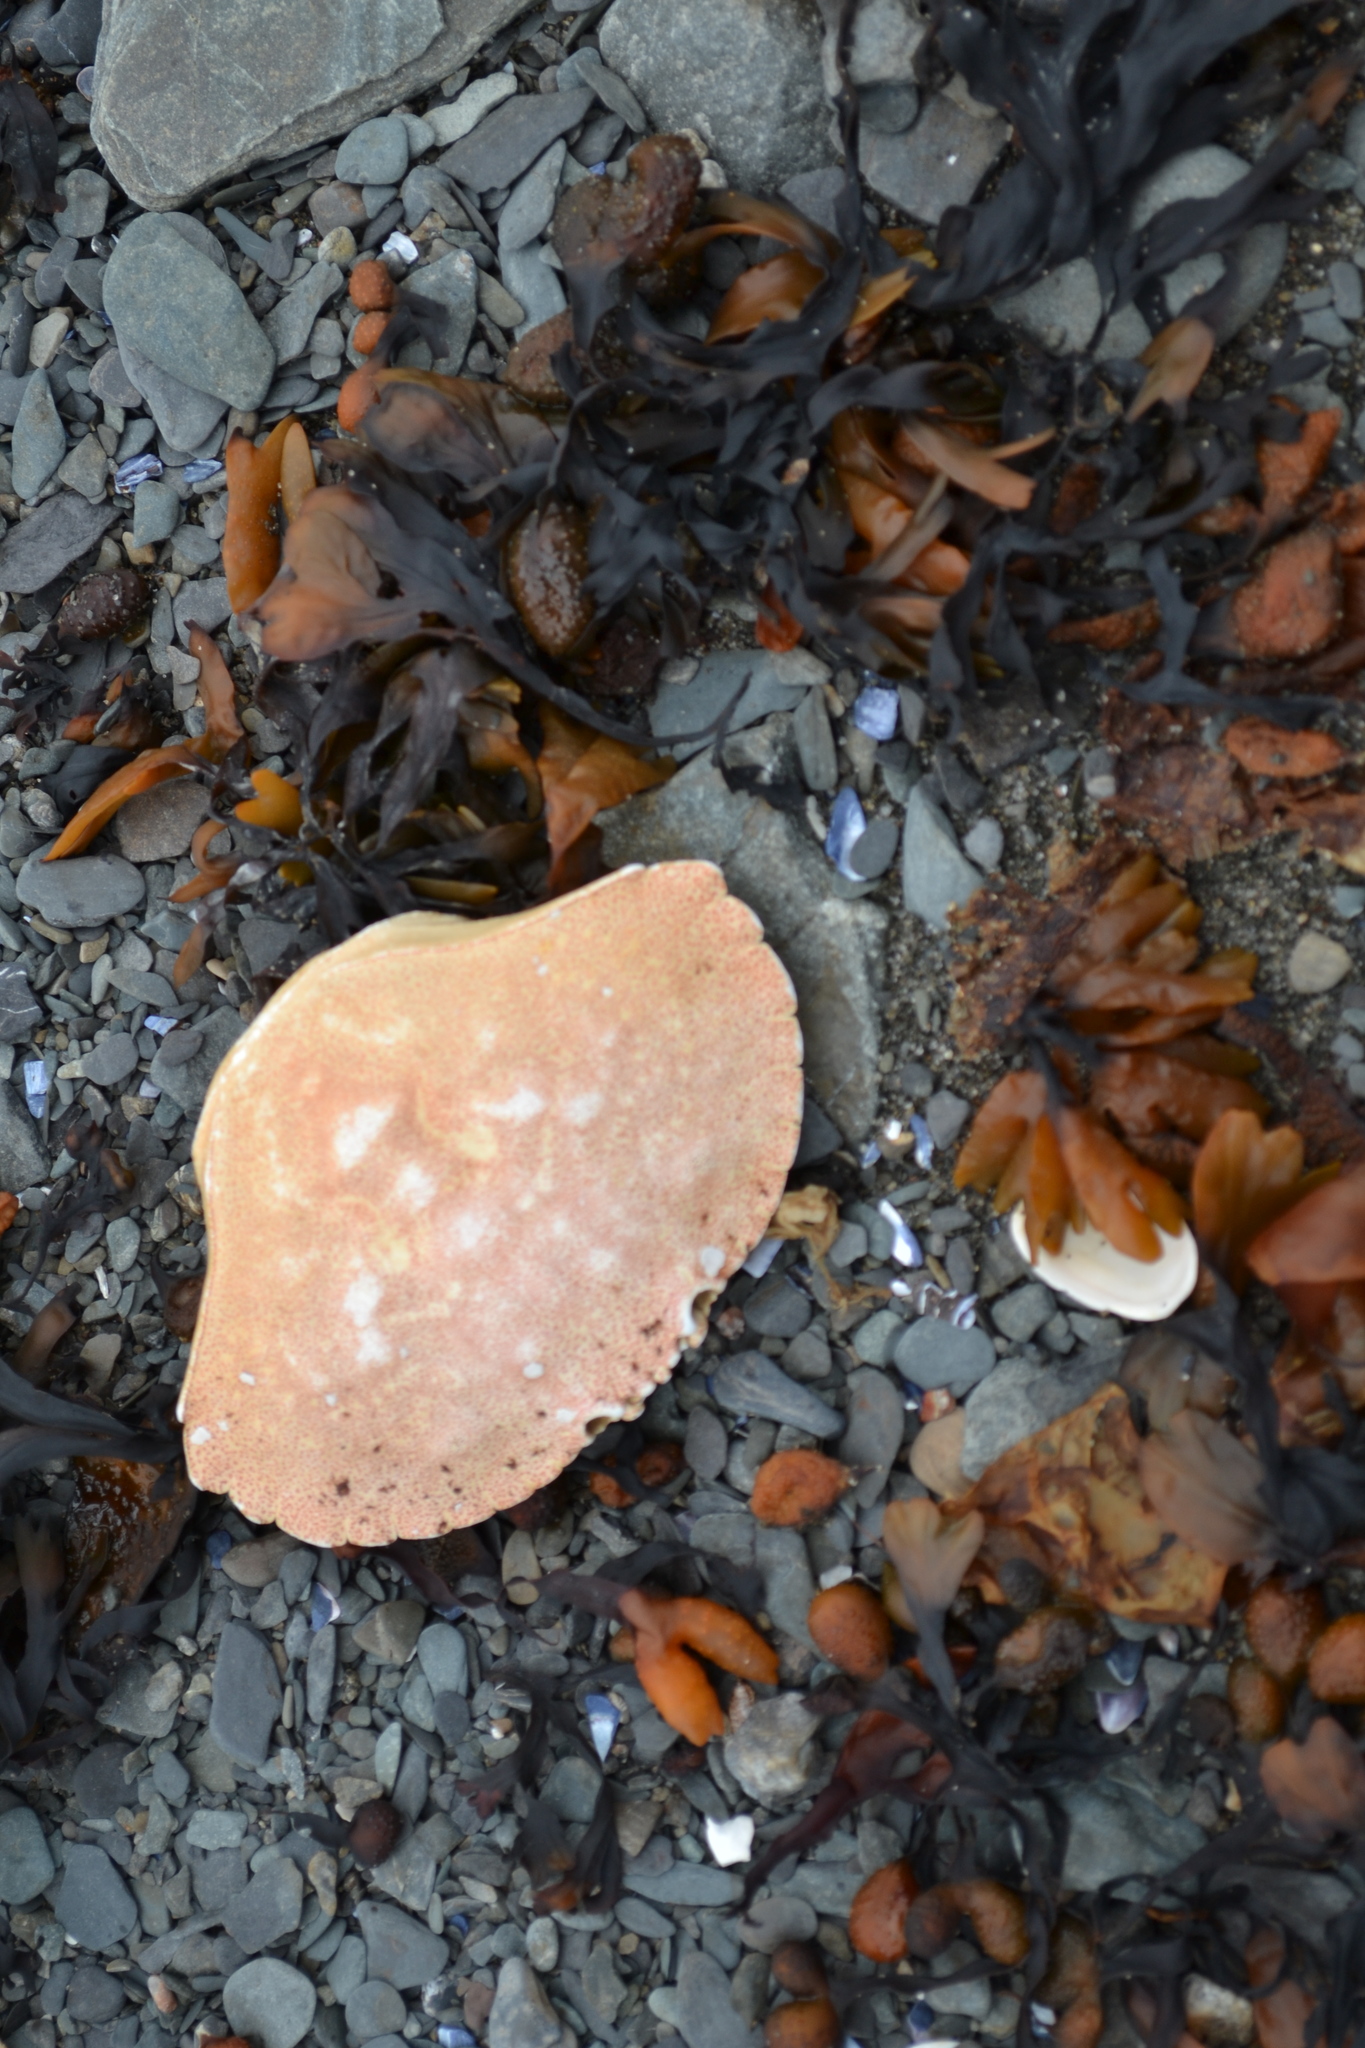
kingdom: Animalia
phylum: Arthropoda
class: Malacostraca
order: Decapoda
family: Cancridae
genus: Cancer
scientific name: Cancer irroratus
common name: Atlantic rock crab
